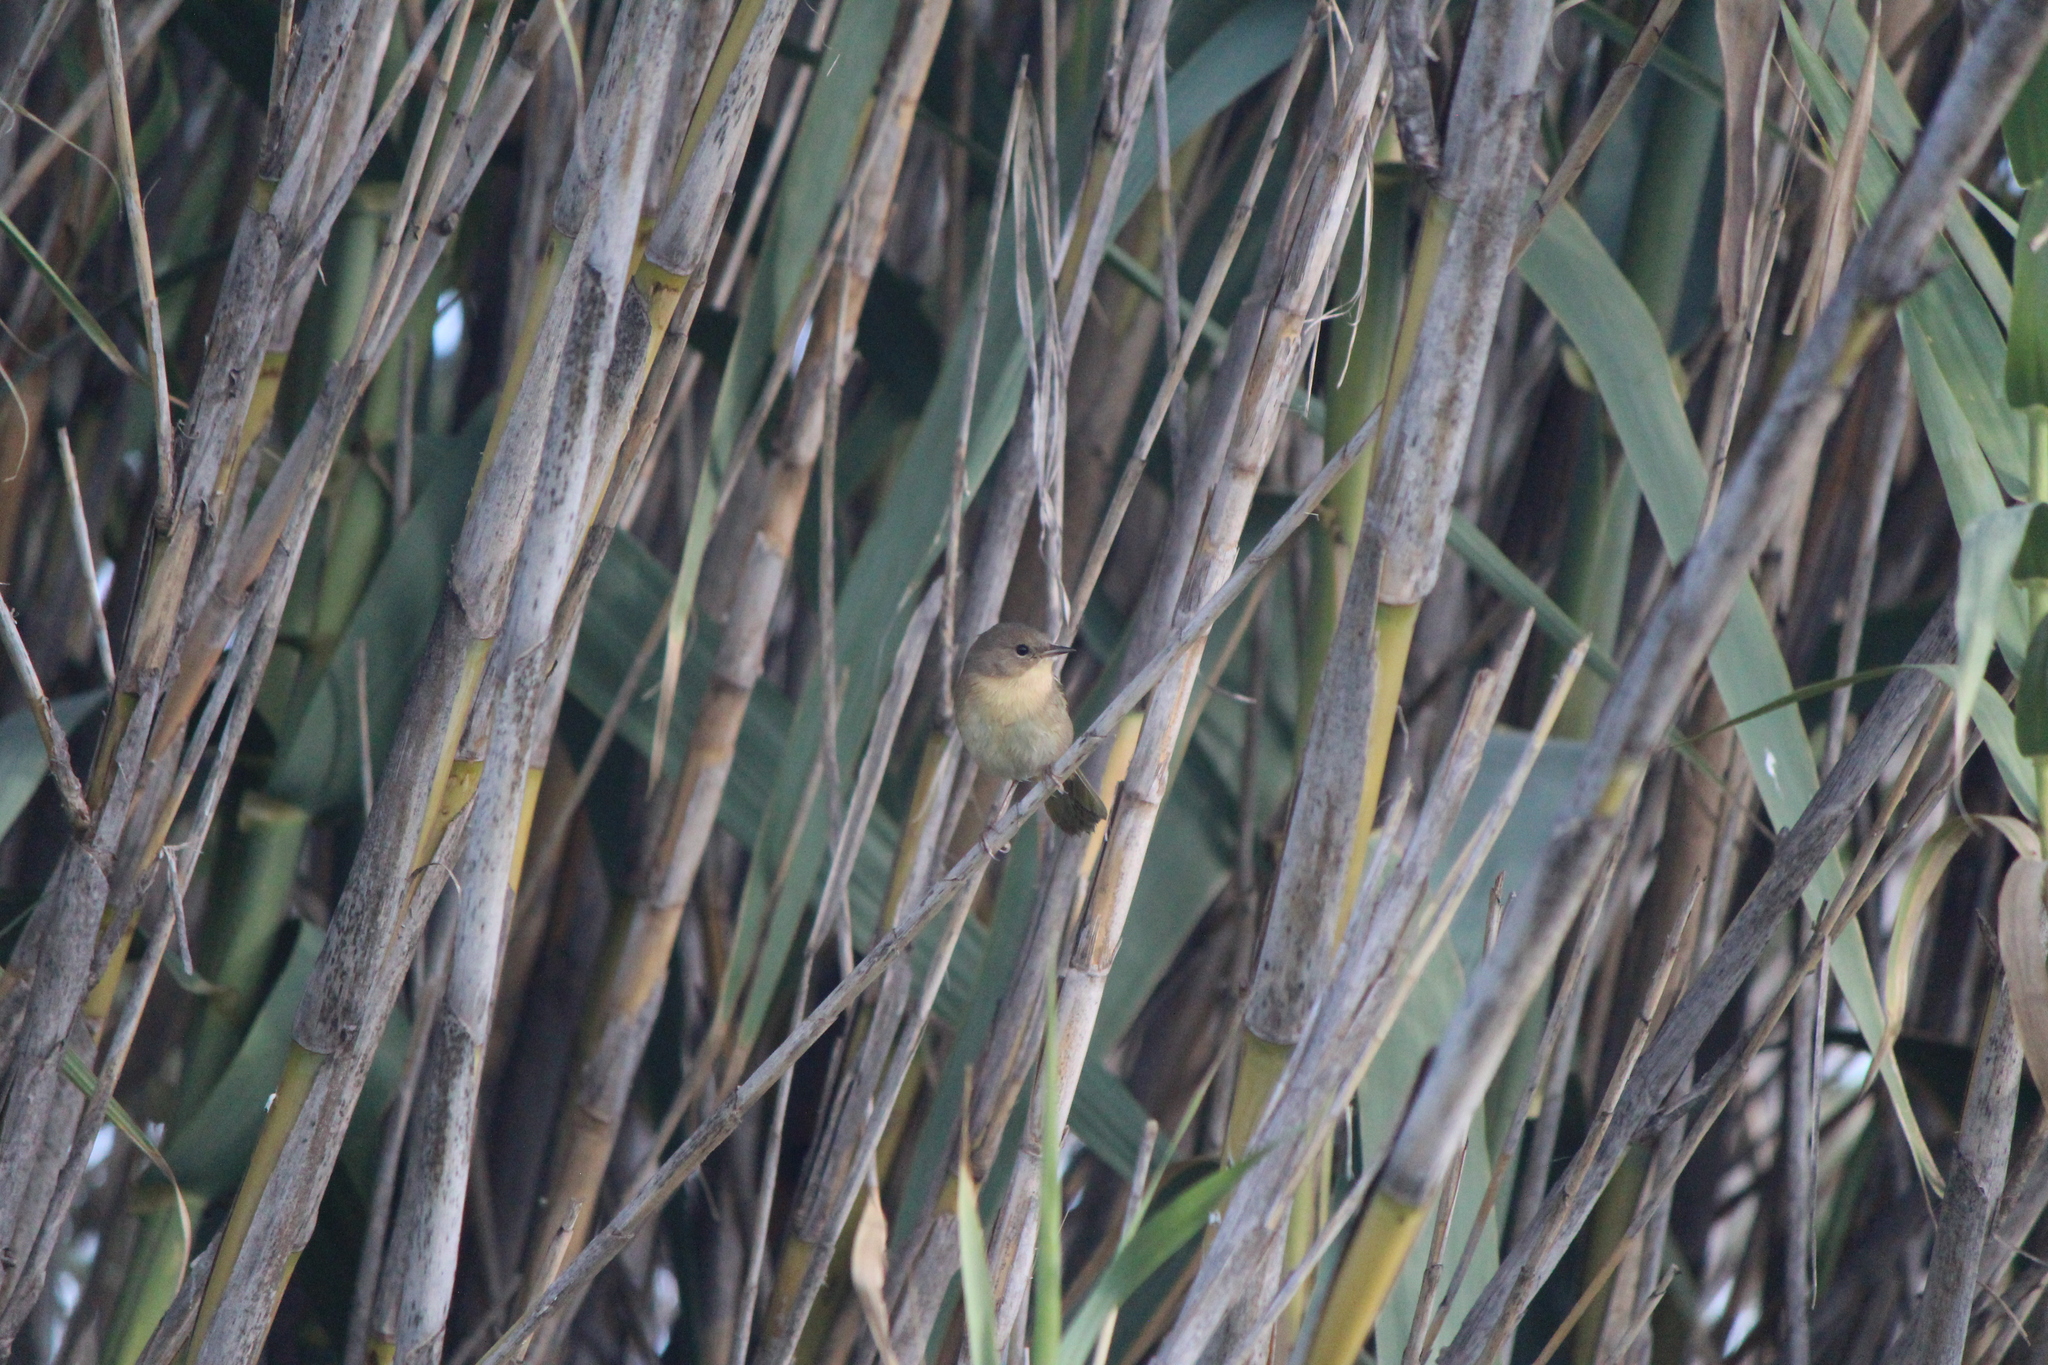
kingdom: Animalia
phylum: Chordata
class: Aves
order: Passeriformes
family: Parulidae
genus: Geothlypis
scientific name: Geothlypis trichas
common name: Common yellowthroat
